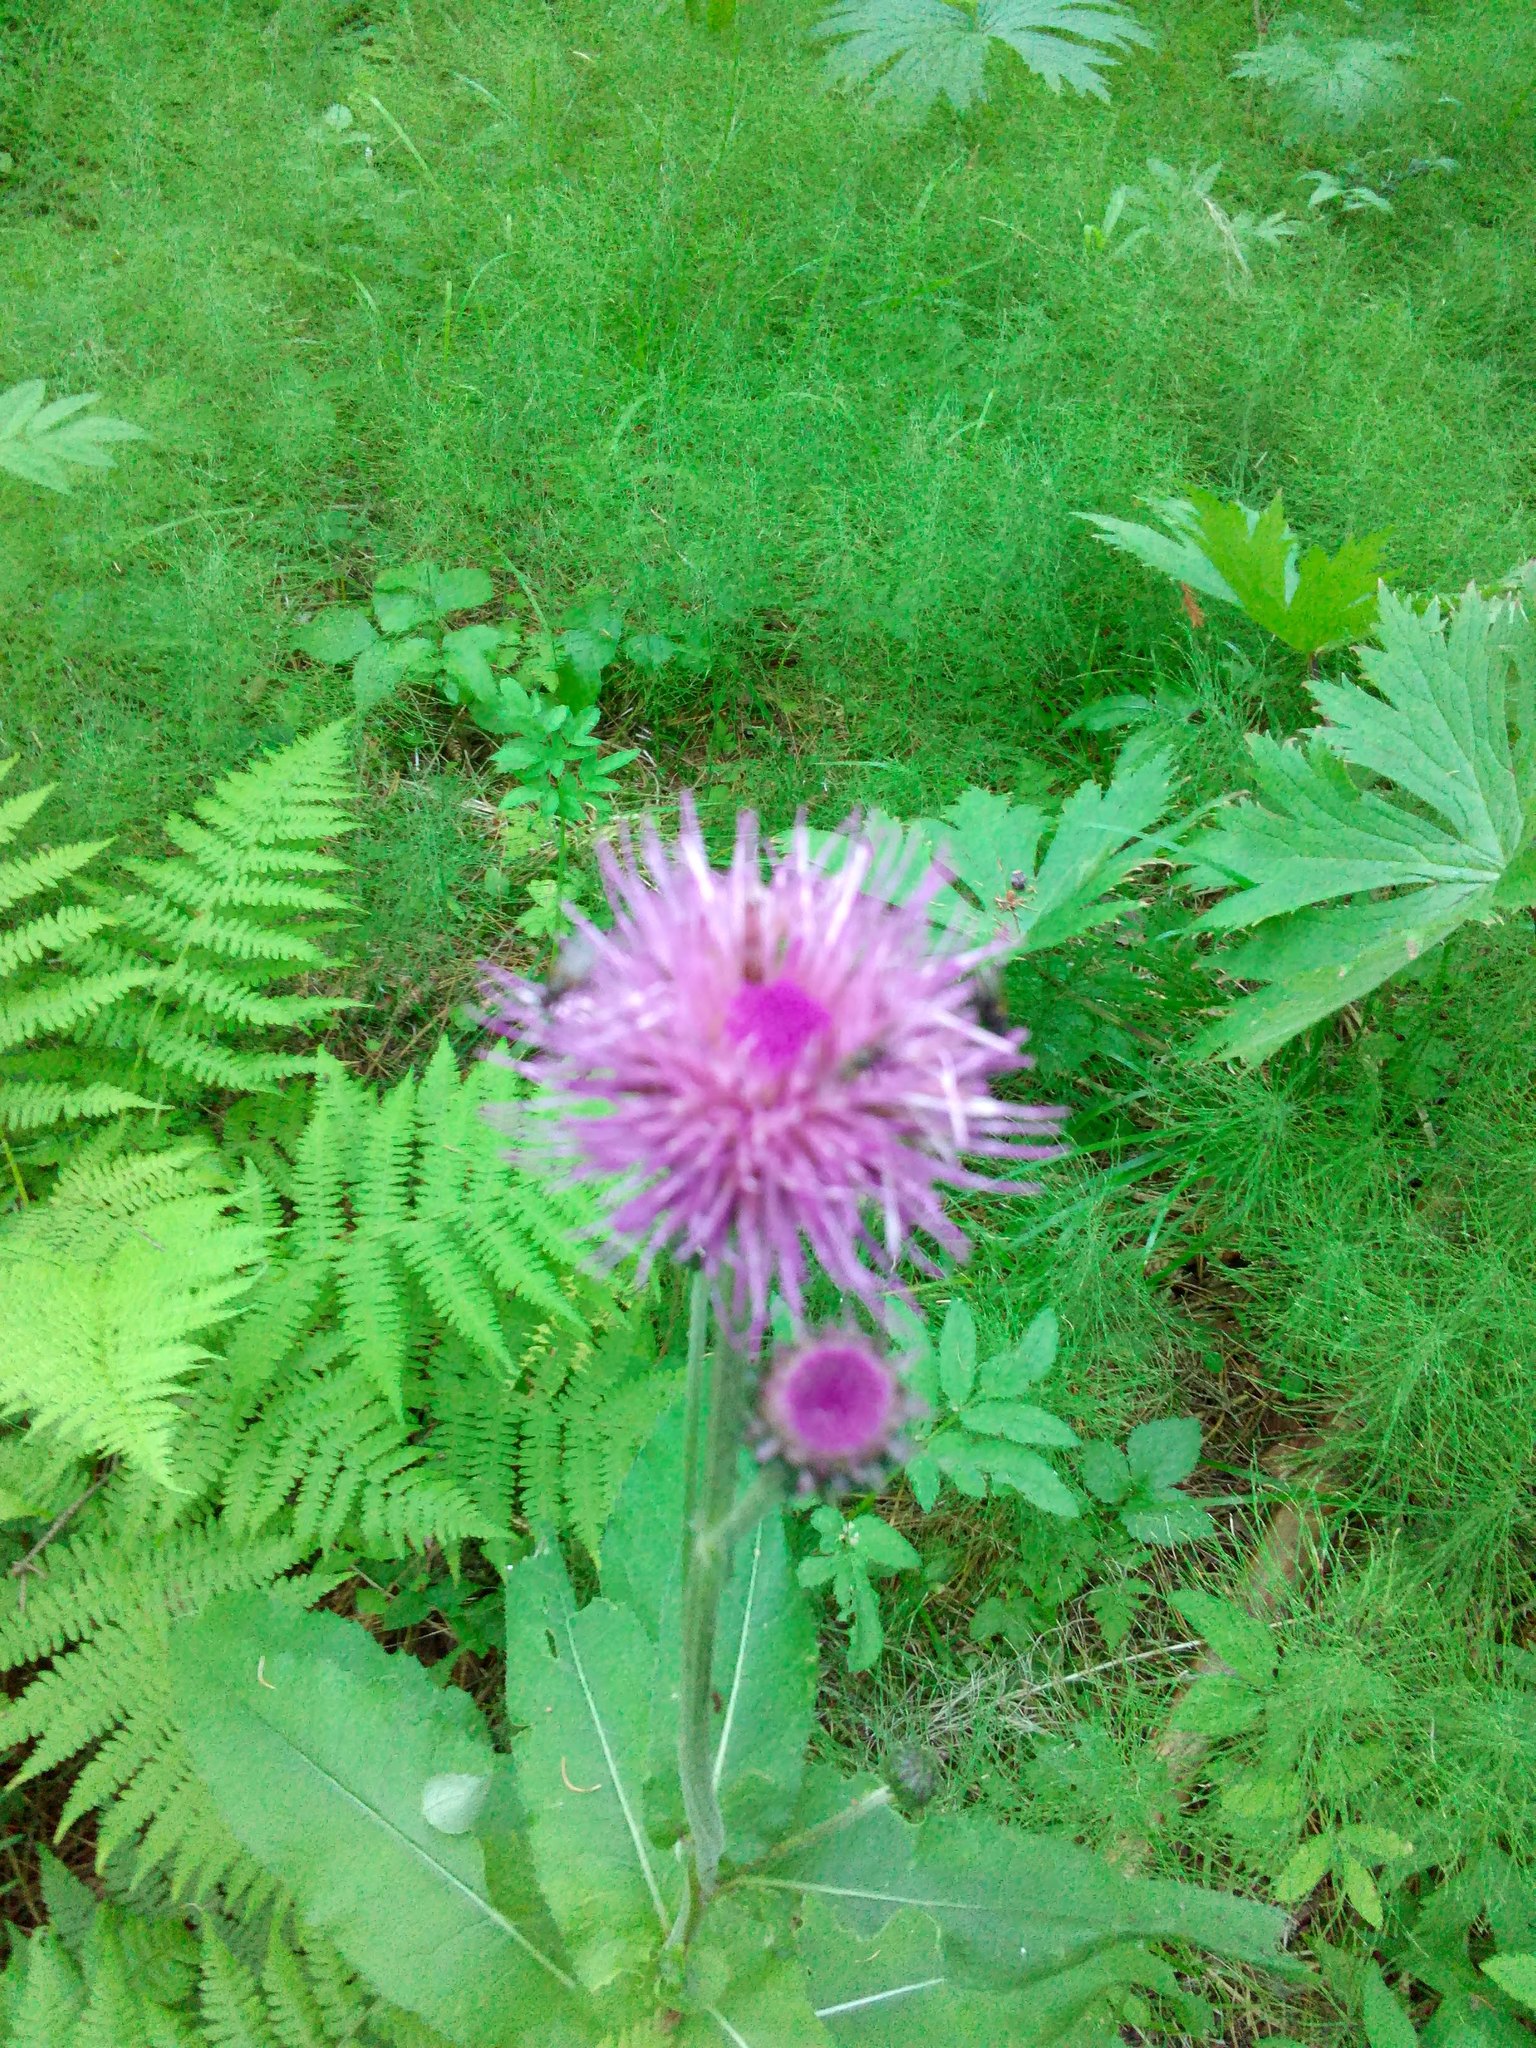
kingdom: Plantae
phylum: Tracheophyta
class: Magnoliopsida
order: Asterales
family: Asteraceae
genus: Cirsium
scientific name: Cirsium heterophyllum
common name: Melancholy thistle
